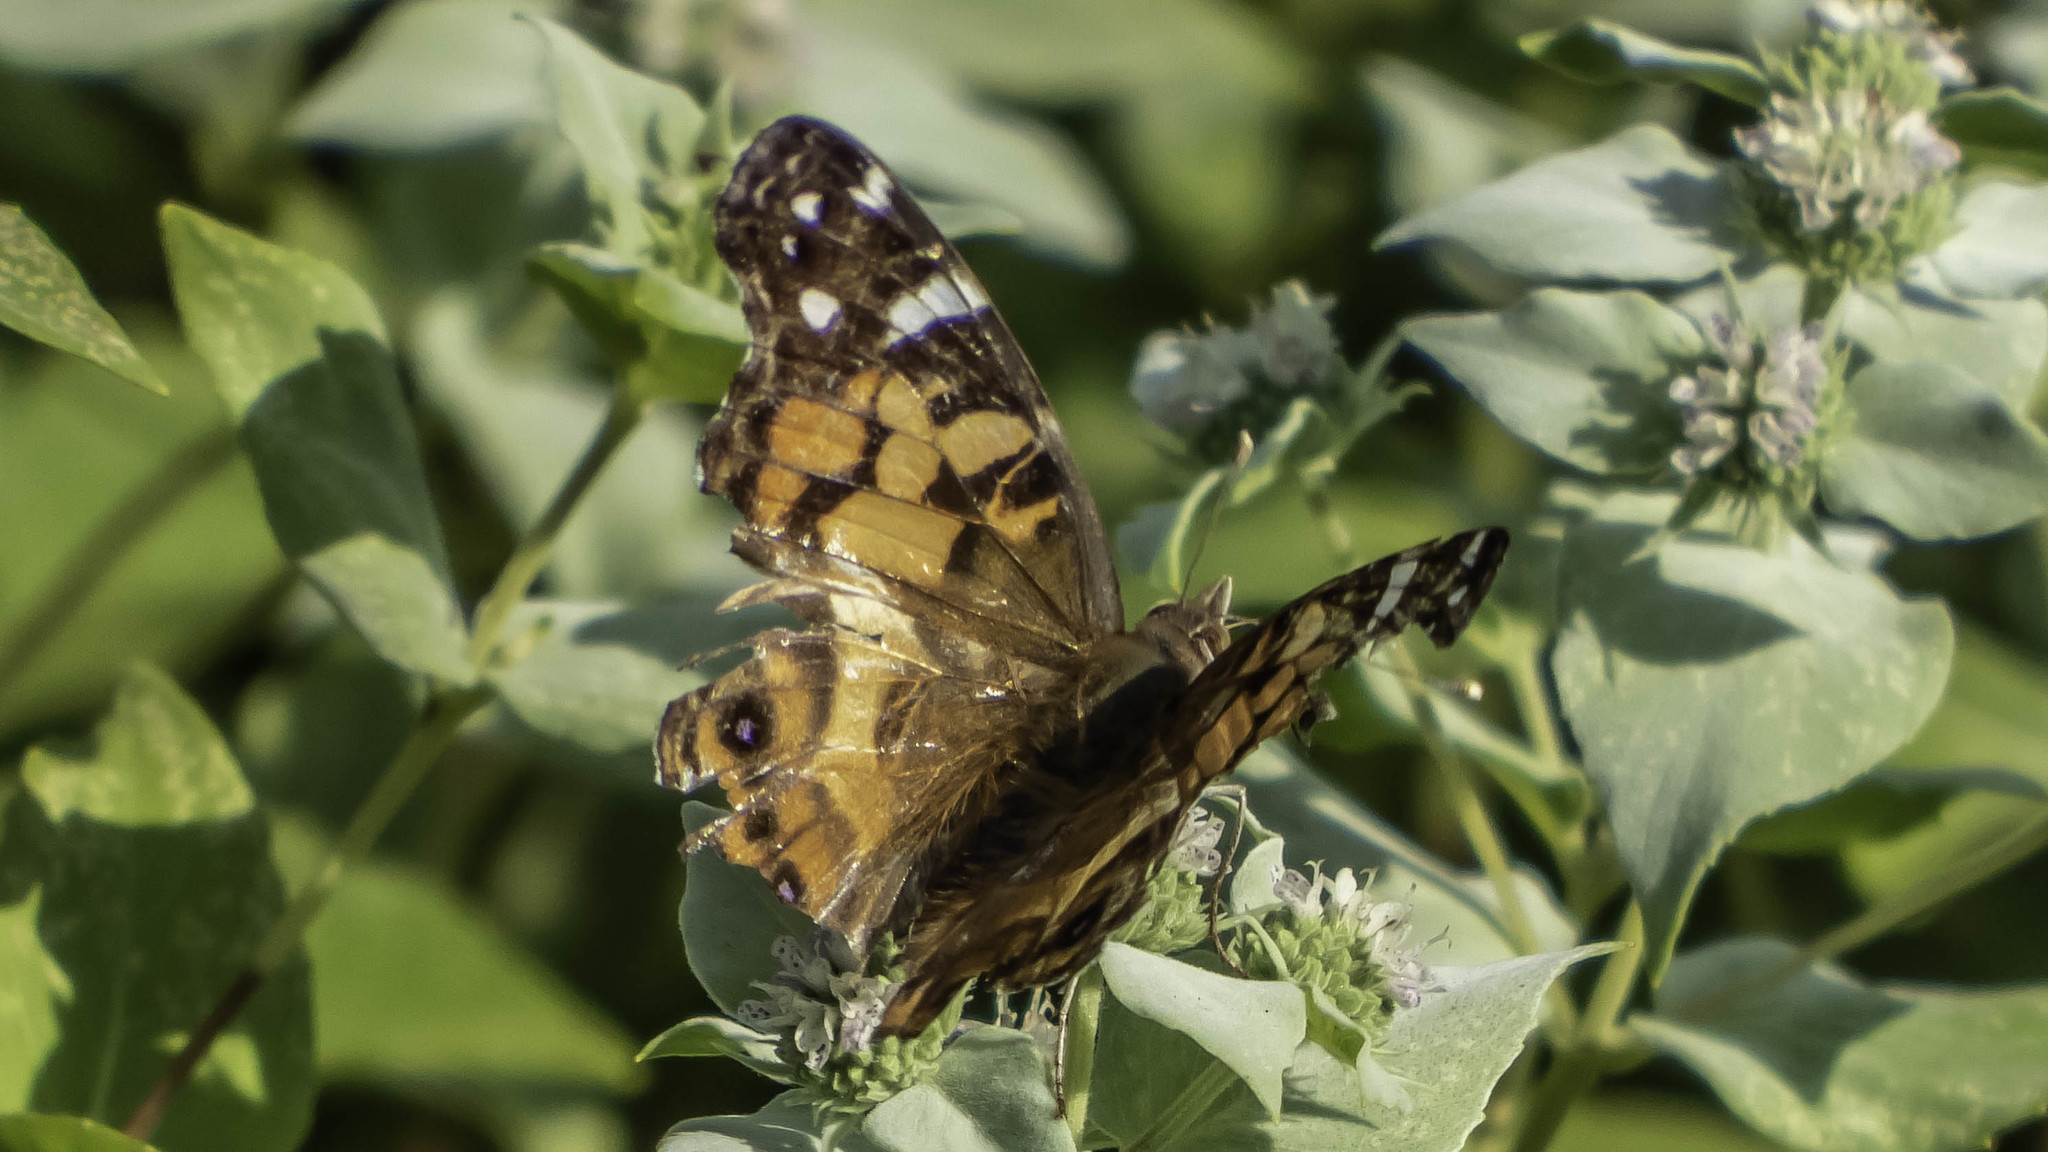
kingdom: Animalia
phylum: Arthropoda
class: Insecta
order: Lepidoptera
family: Nymphalidae
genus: Vanessa
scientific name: Vanessa virginiensis
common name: American lady
